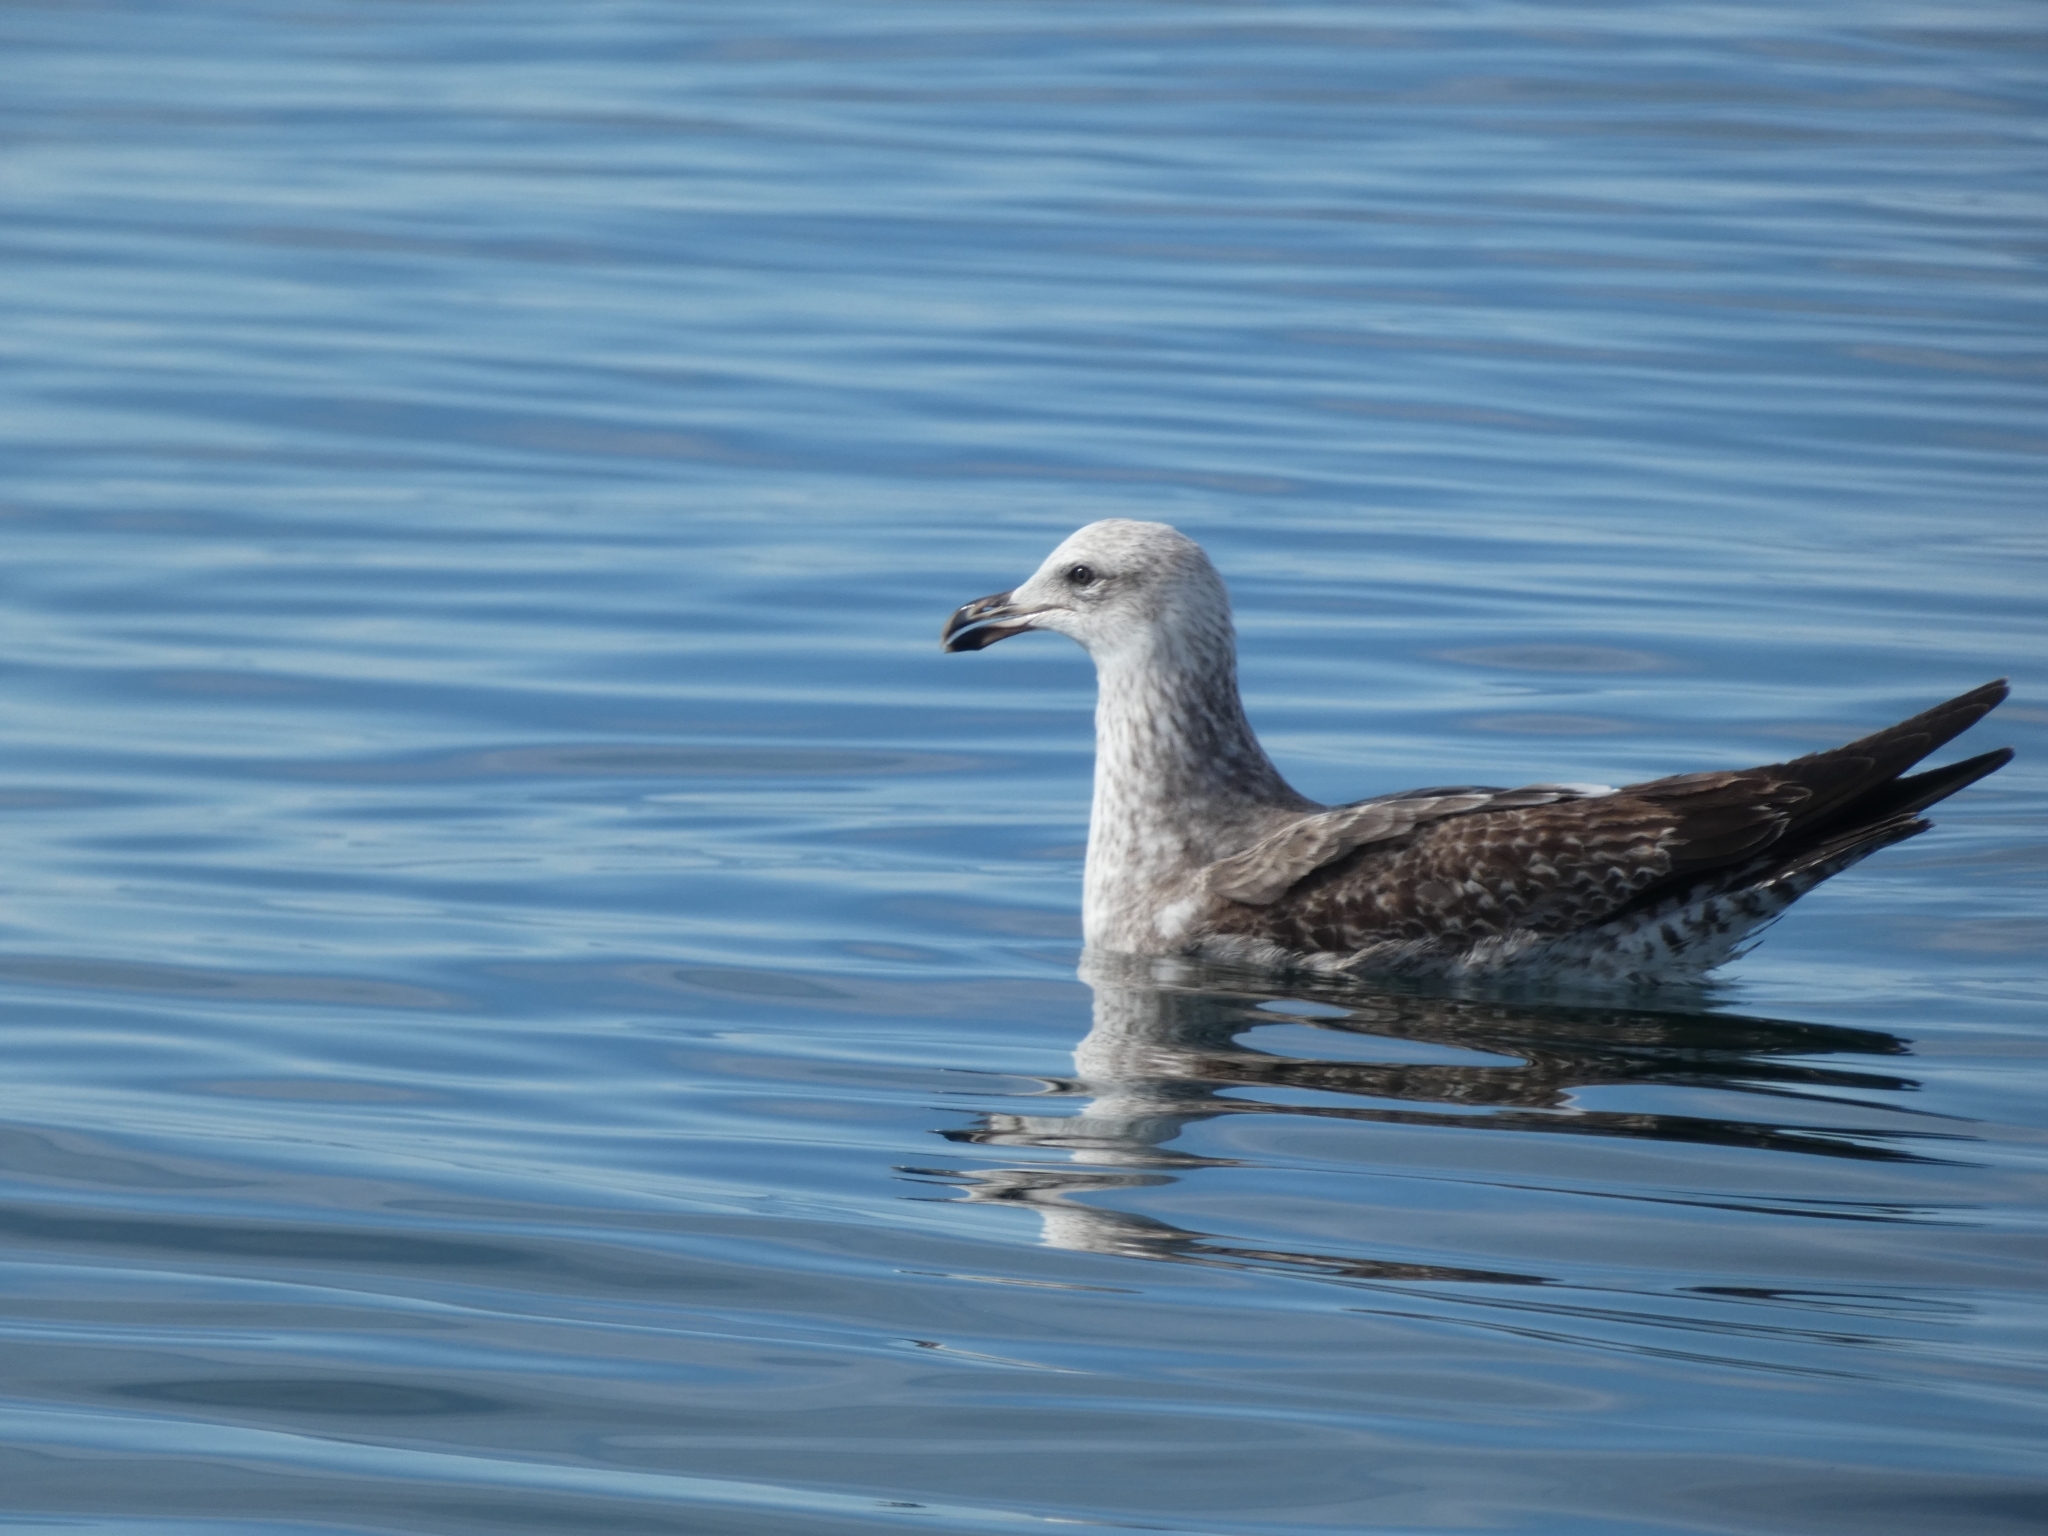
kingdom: Animalia
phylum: Chordata
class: Aves
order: Charadriiformes
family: Laridae
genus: Larus
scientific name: Larus dominicanus
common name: Kelp gull
